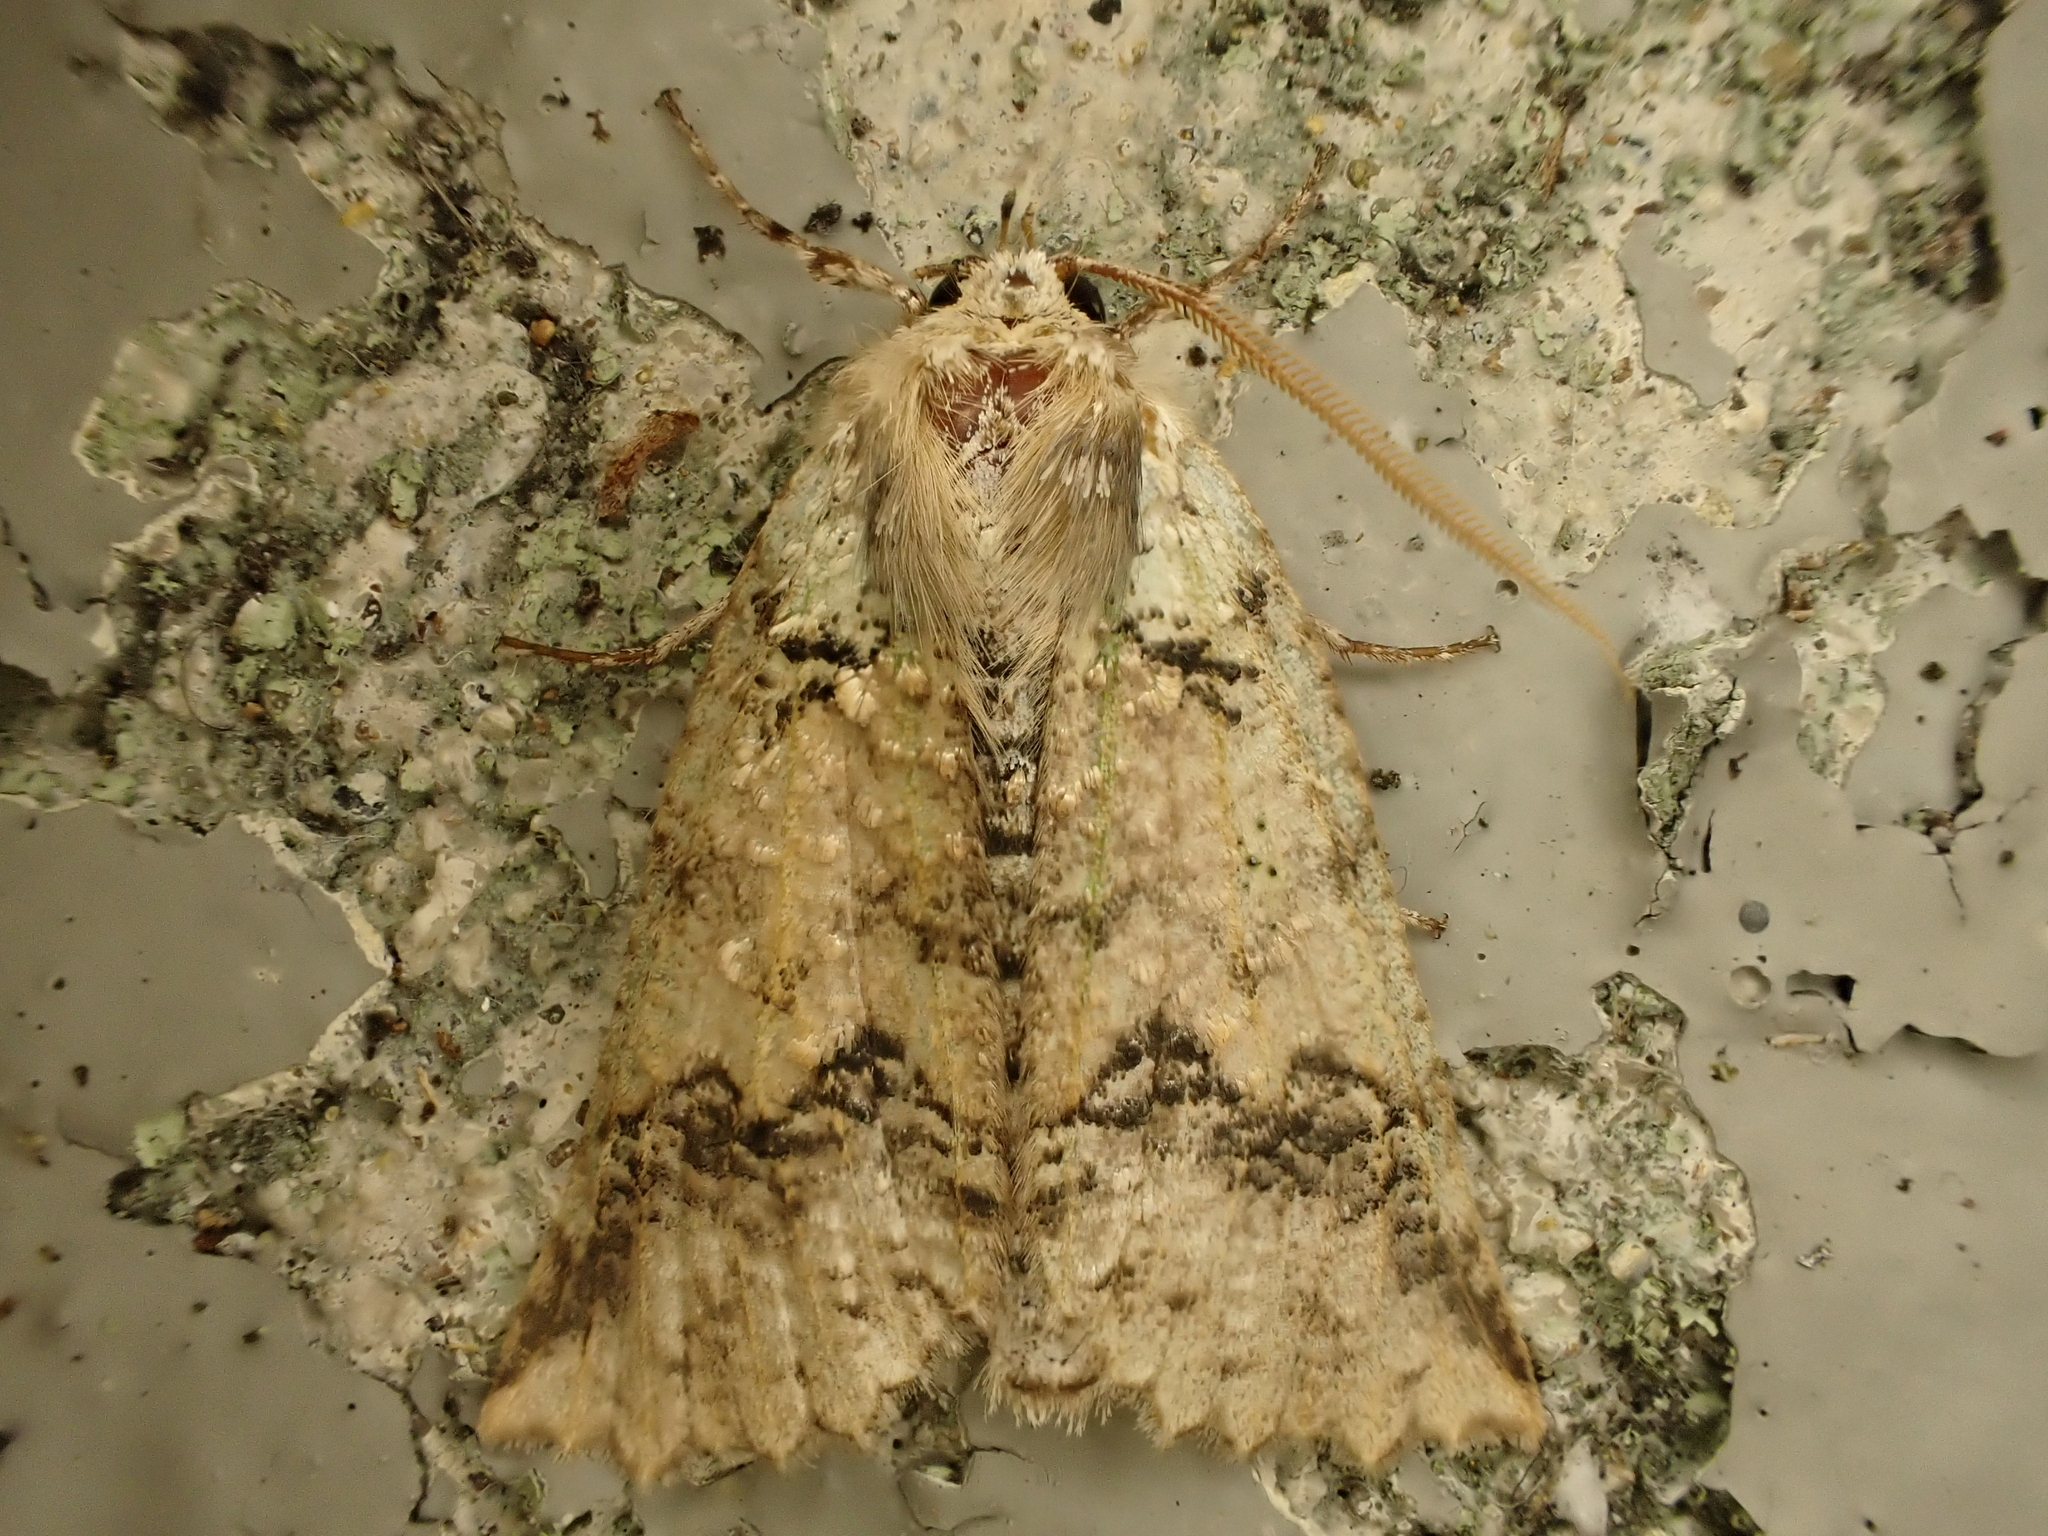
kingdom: Animalia
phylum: Arthropoda
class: Insecta
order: Lepidoptera
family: Geometridae
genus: Declana
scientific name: Declana floccosa
